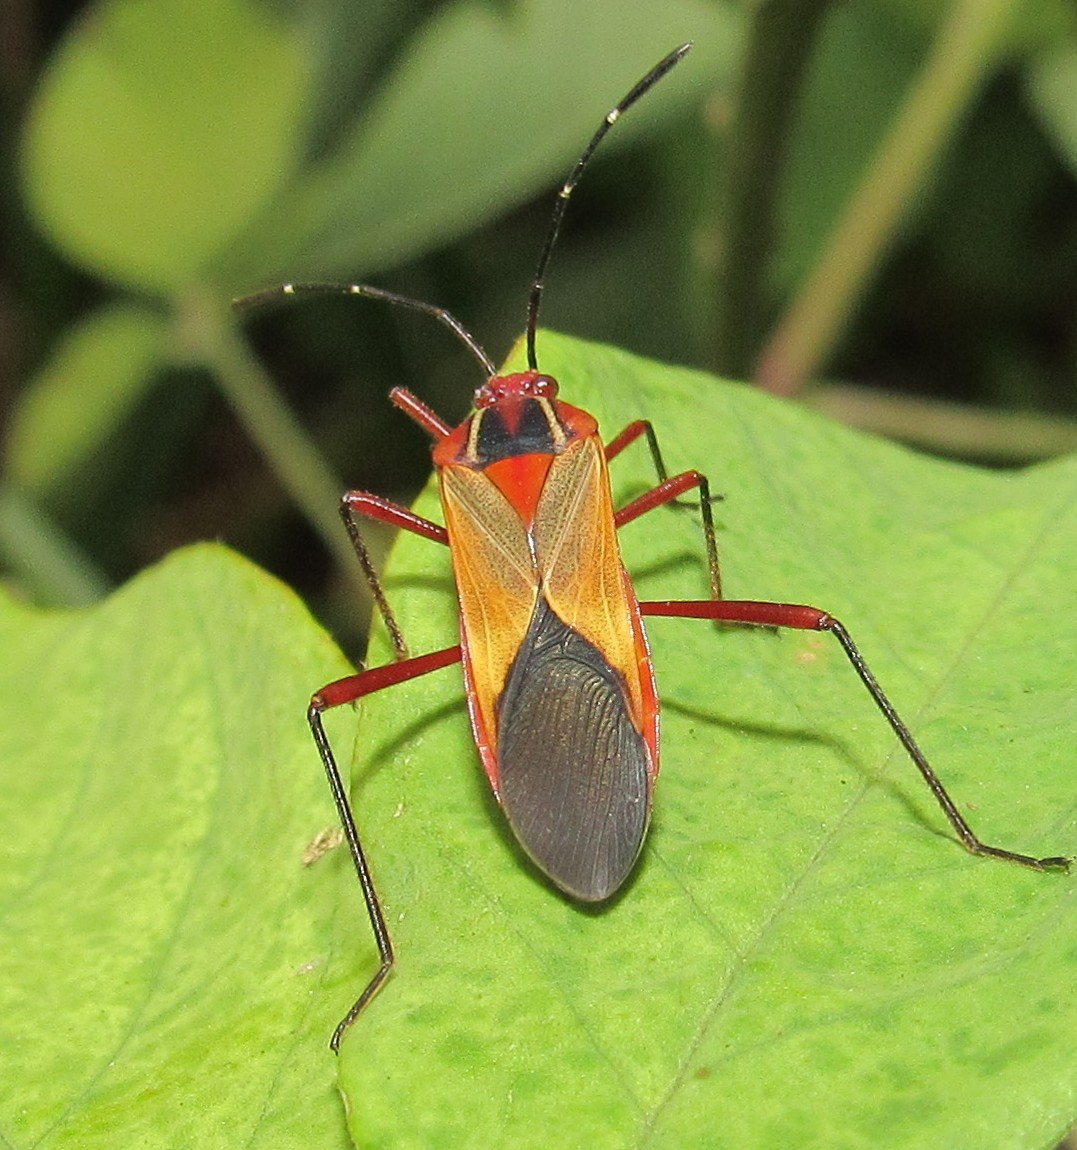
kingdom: Animalia
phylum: Arthropoda
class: Insecta
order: Hemiptera
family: Coreidae
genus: Hypselonotus
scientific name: Hypselonotus interruptus
